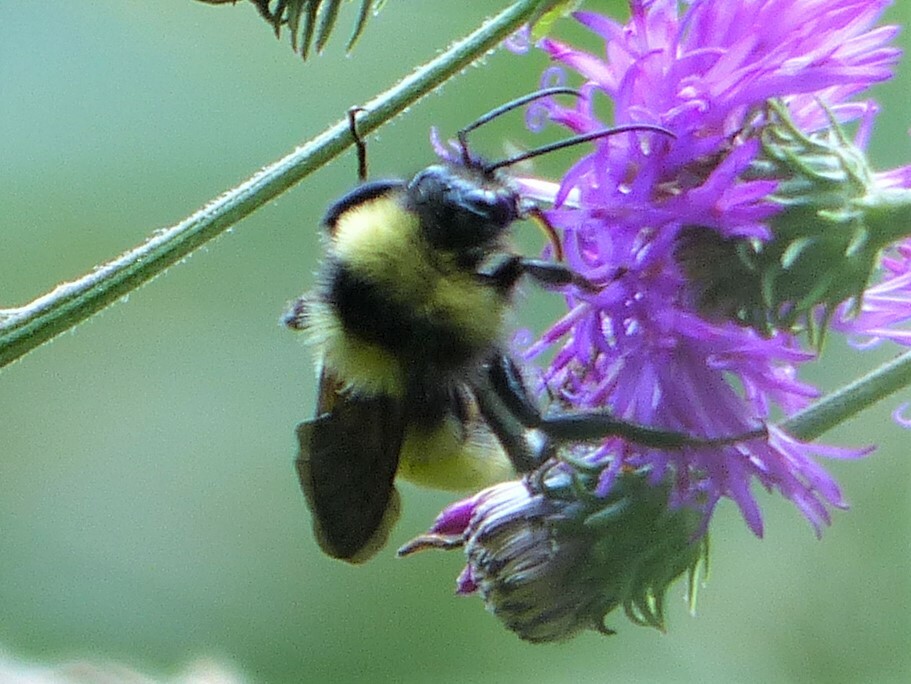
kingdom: Animalia
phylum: Arthropoda
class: Insecta
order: Hymenoptera
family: Apidae
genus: Bombus
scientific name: Bombus pensylvanicus
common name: Bumble bee
